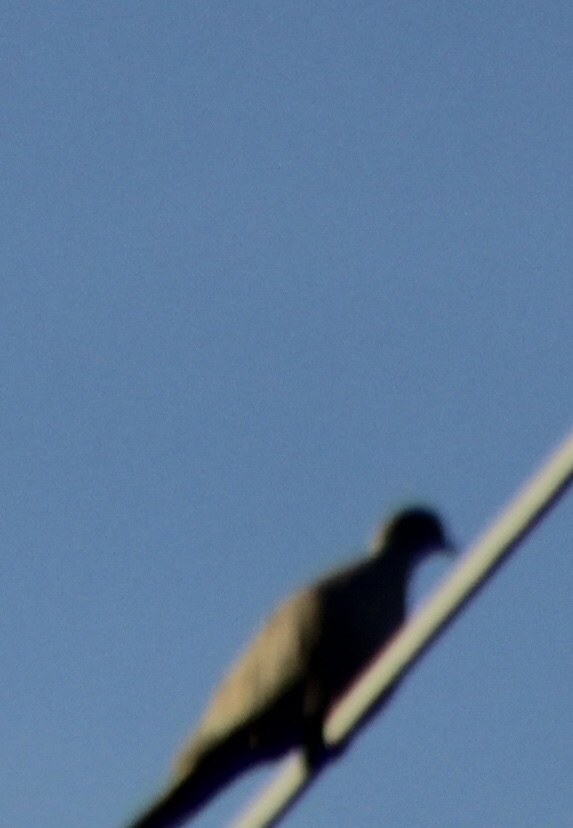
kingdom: Animalia
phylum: Chordata
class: Aves
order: Columbiformes
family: Columbidae
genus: Streptopelia
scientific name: Streptopelia decaocto
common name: Eurasian collared dove
